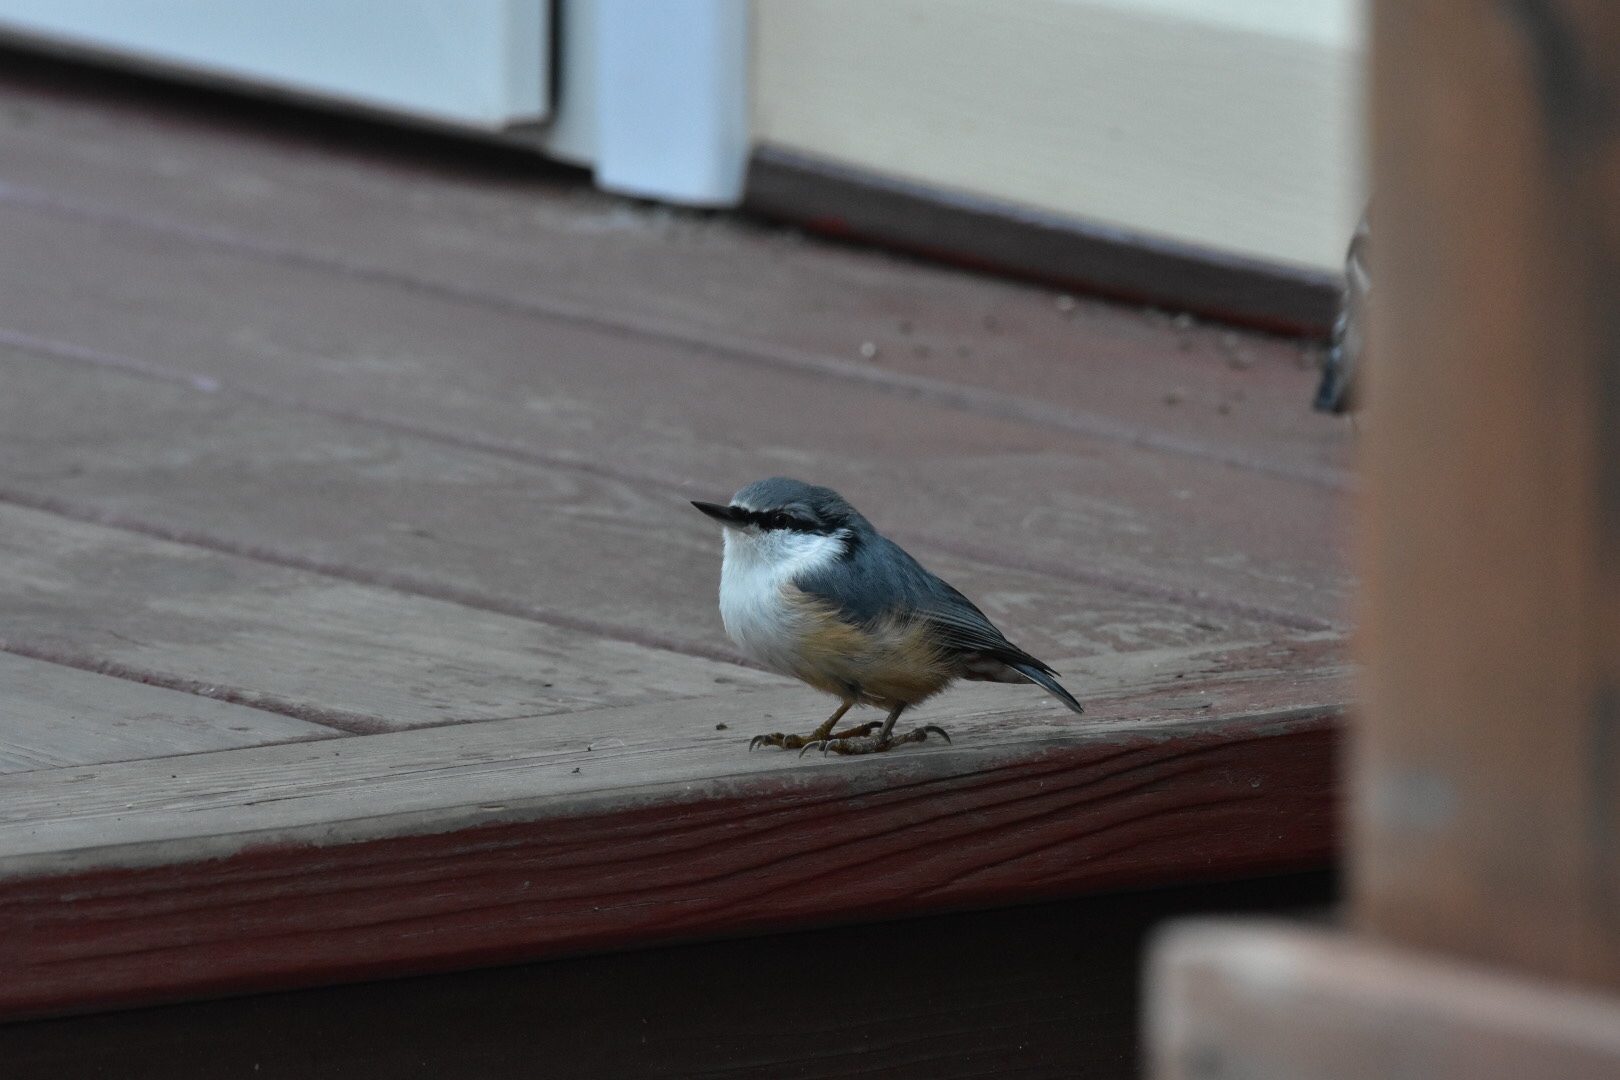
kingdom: Animalia
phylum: Chordata
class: Aves
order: Passeriformes
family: Sittidae
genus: Sitta
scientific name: Sitta europaea
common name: Eurasian nuthatch
